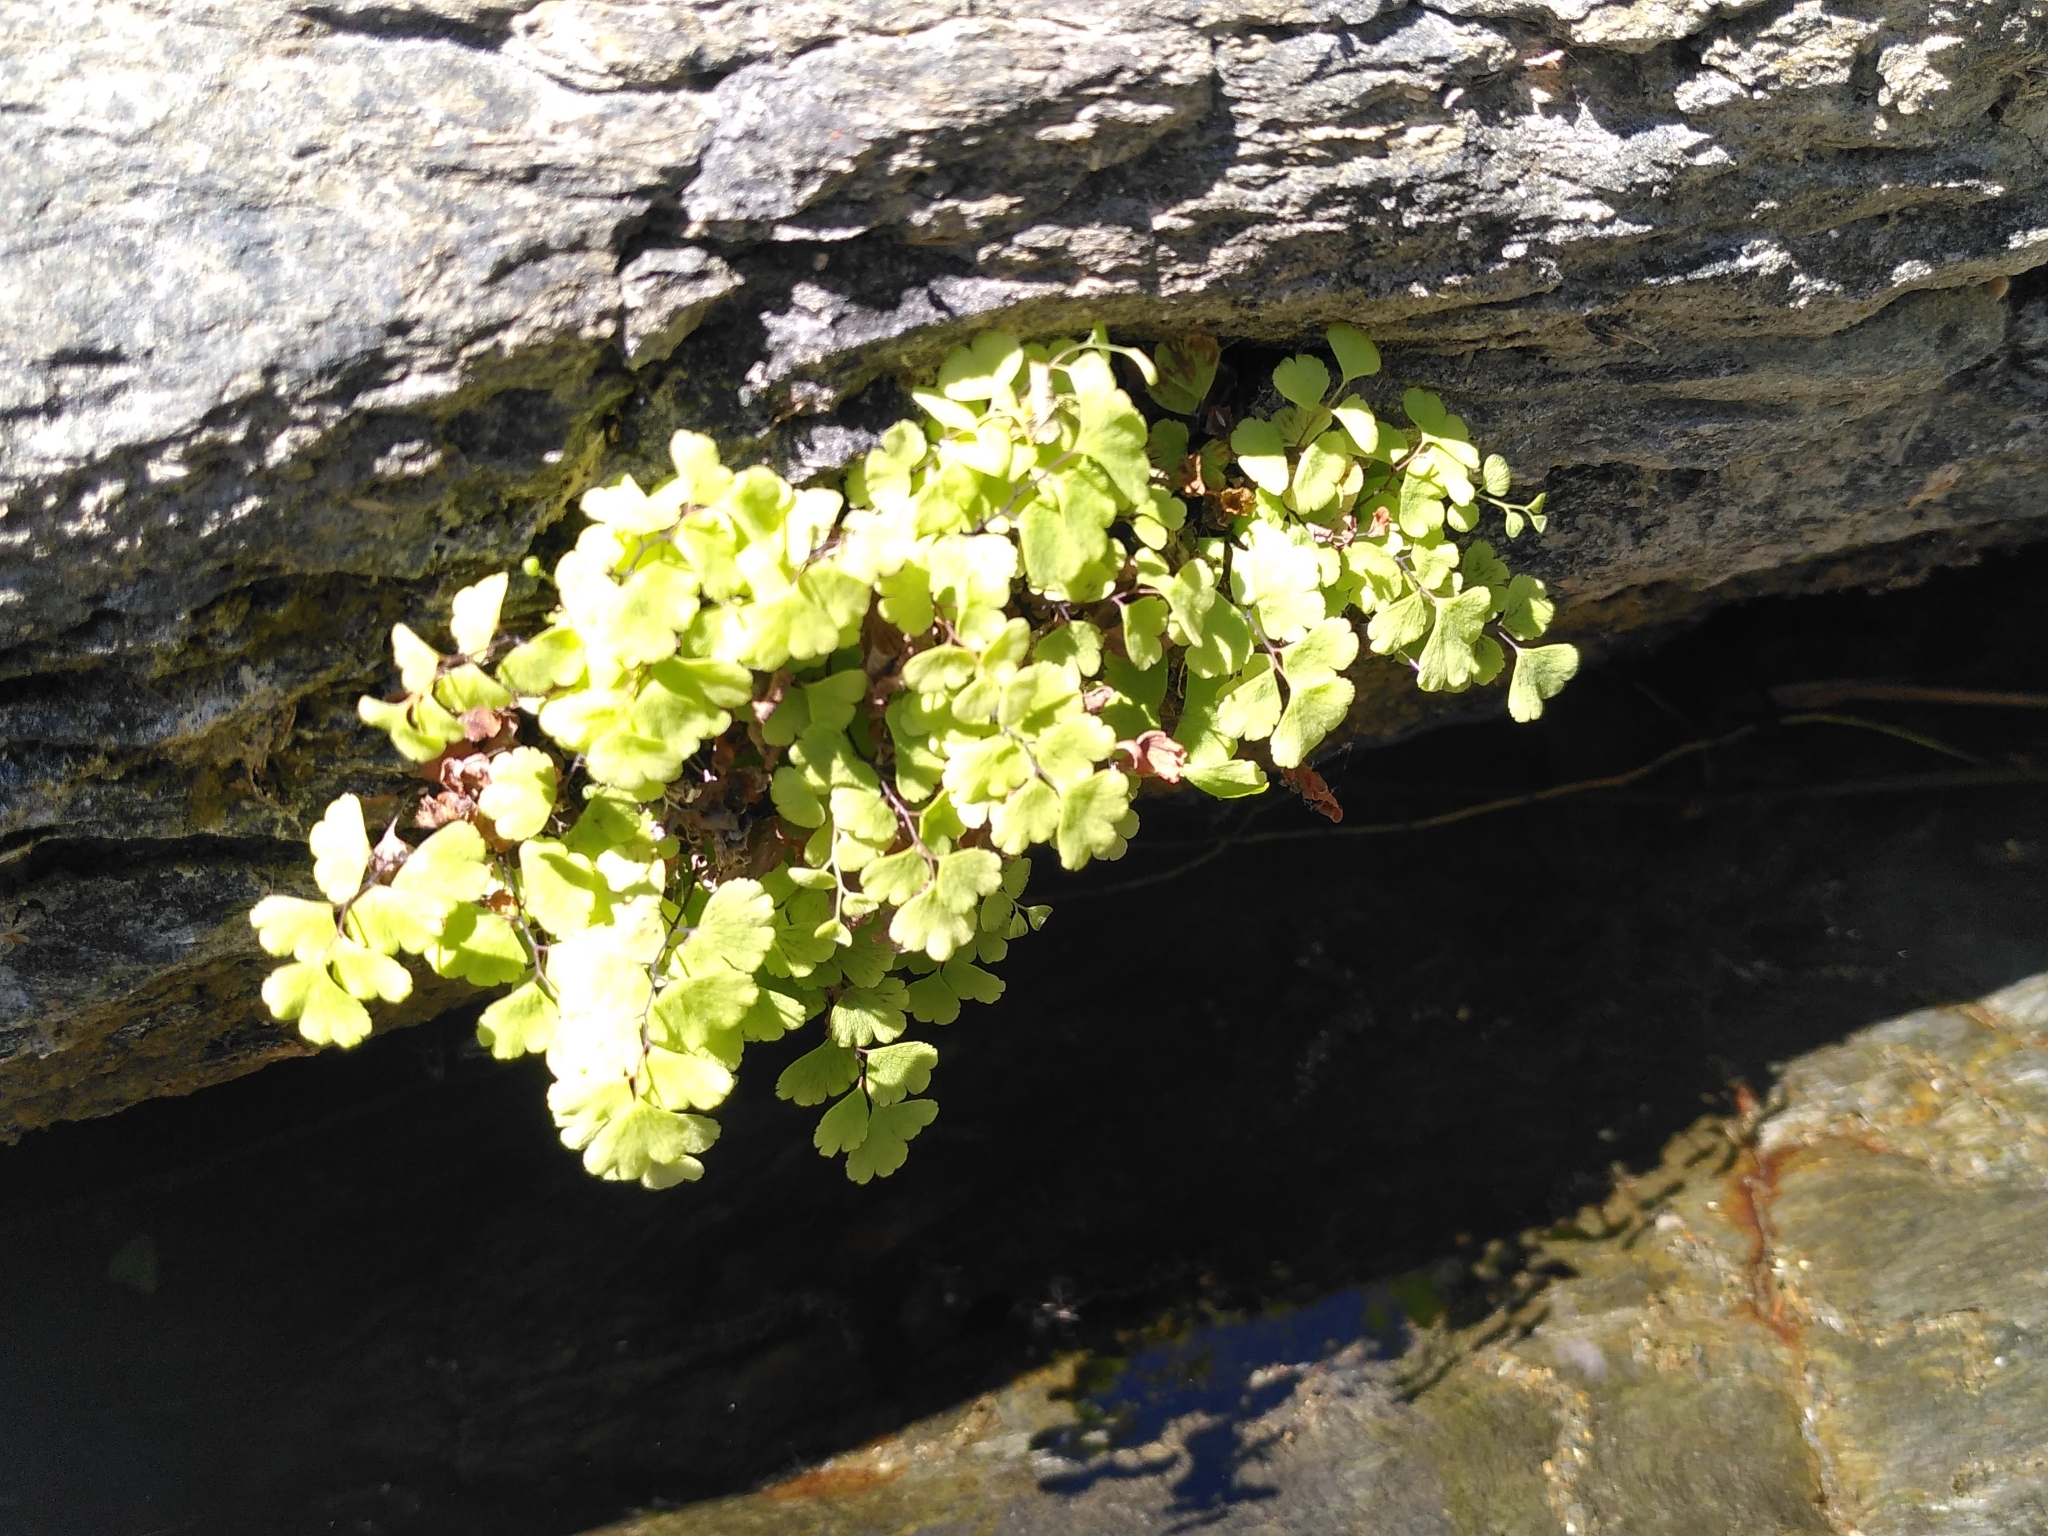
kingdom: Plantae
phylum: Tracheophyta
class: Polypodiopsida
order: Polypodiales
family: Pteridaceae
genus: Adiantum
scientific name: Adiantum capillus-veneris
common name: Maidenhair fern
